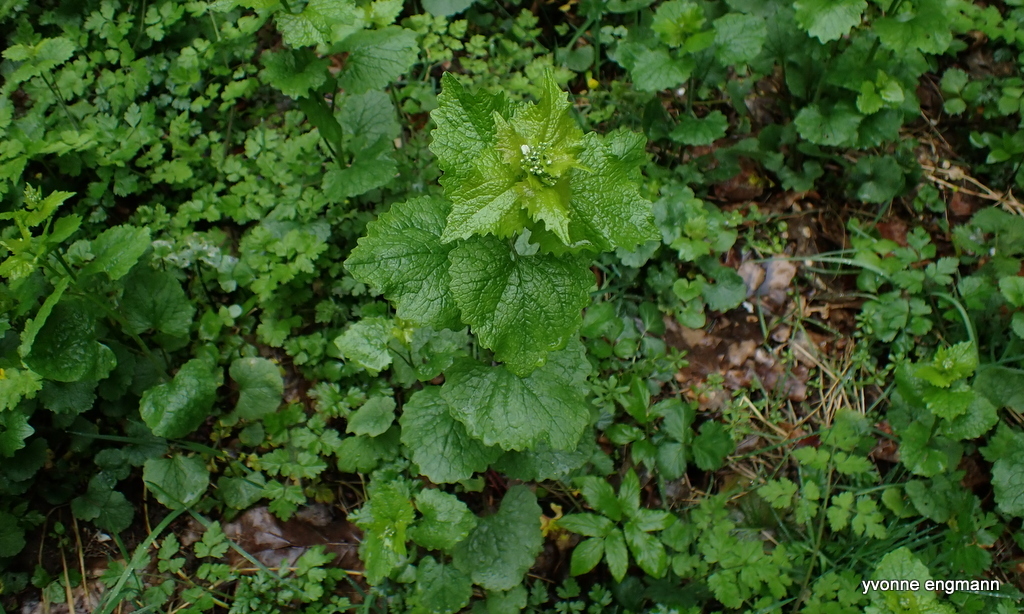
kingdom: Plantae
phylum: Tracheophyta
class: Magnoliopsida
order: Brassicales
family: Brassicaceae
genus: Alliaria
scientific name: Alliaria petiolata
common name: Garlic mustard
